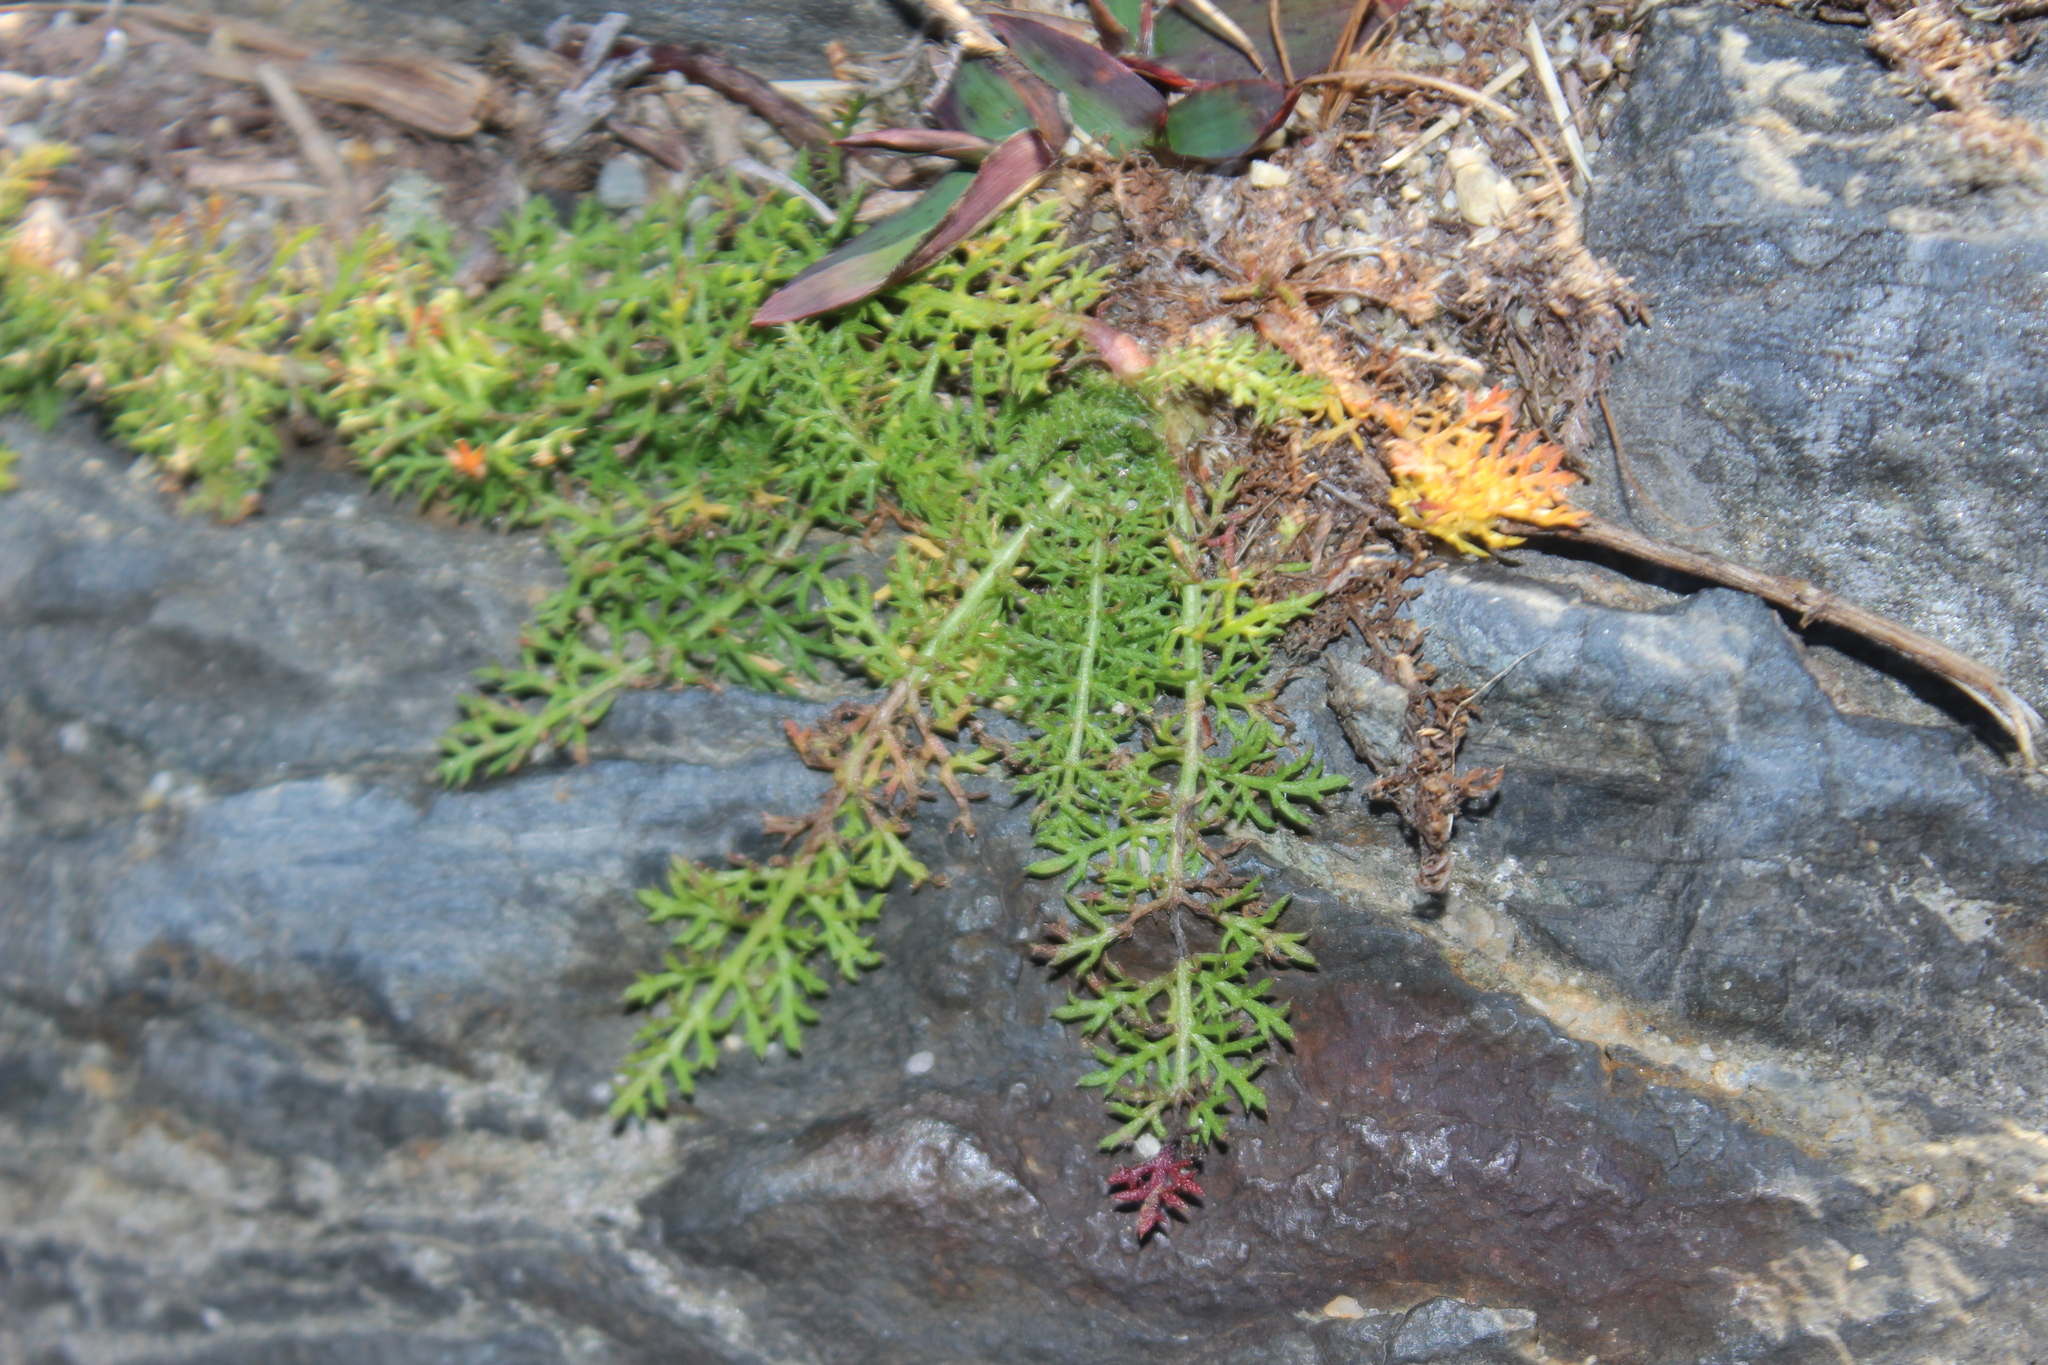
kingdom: Plantae
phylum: Tracheophyta
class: Magnoliopsida
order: Asterales
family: Asteraceae
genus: Achillea
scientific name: Achillea millefolium
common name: Yarrow
